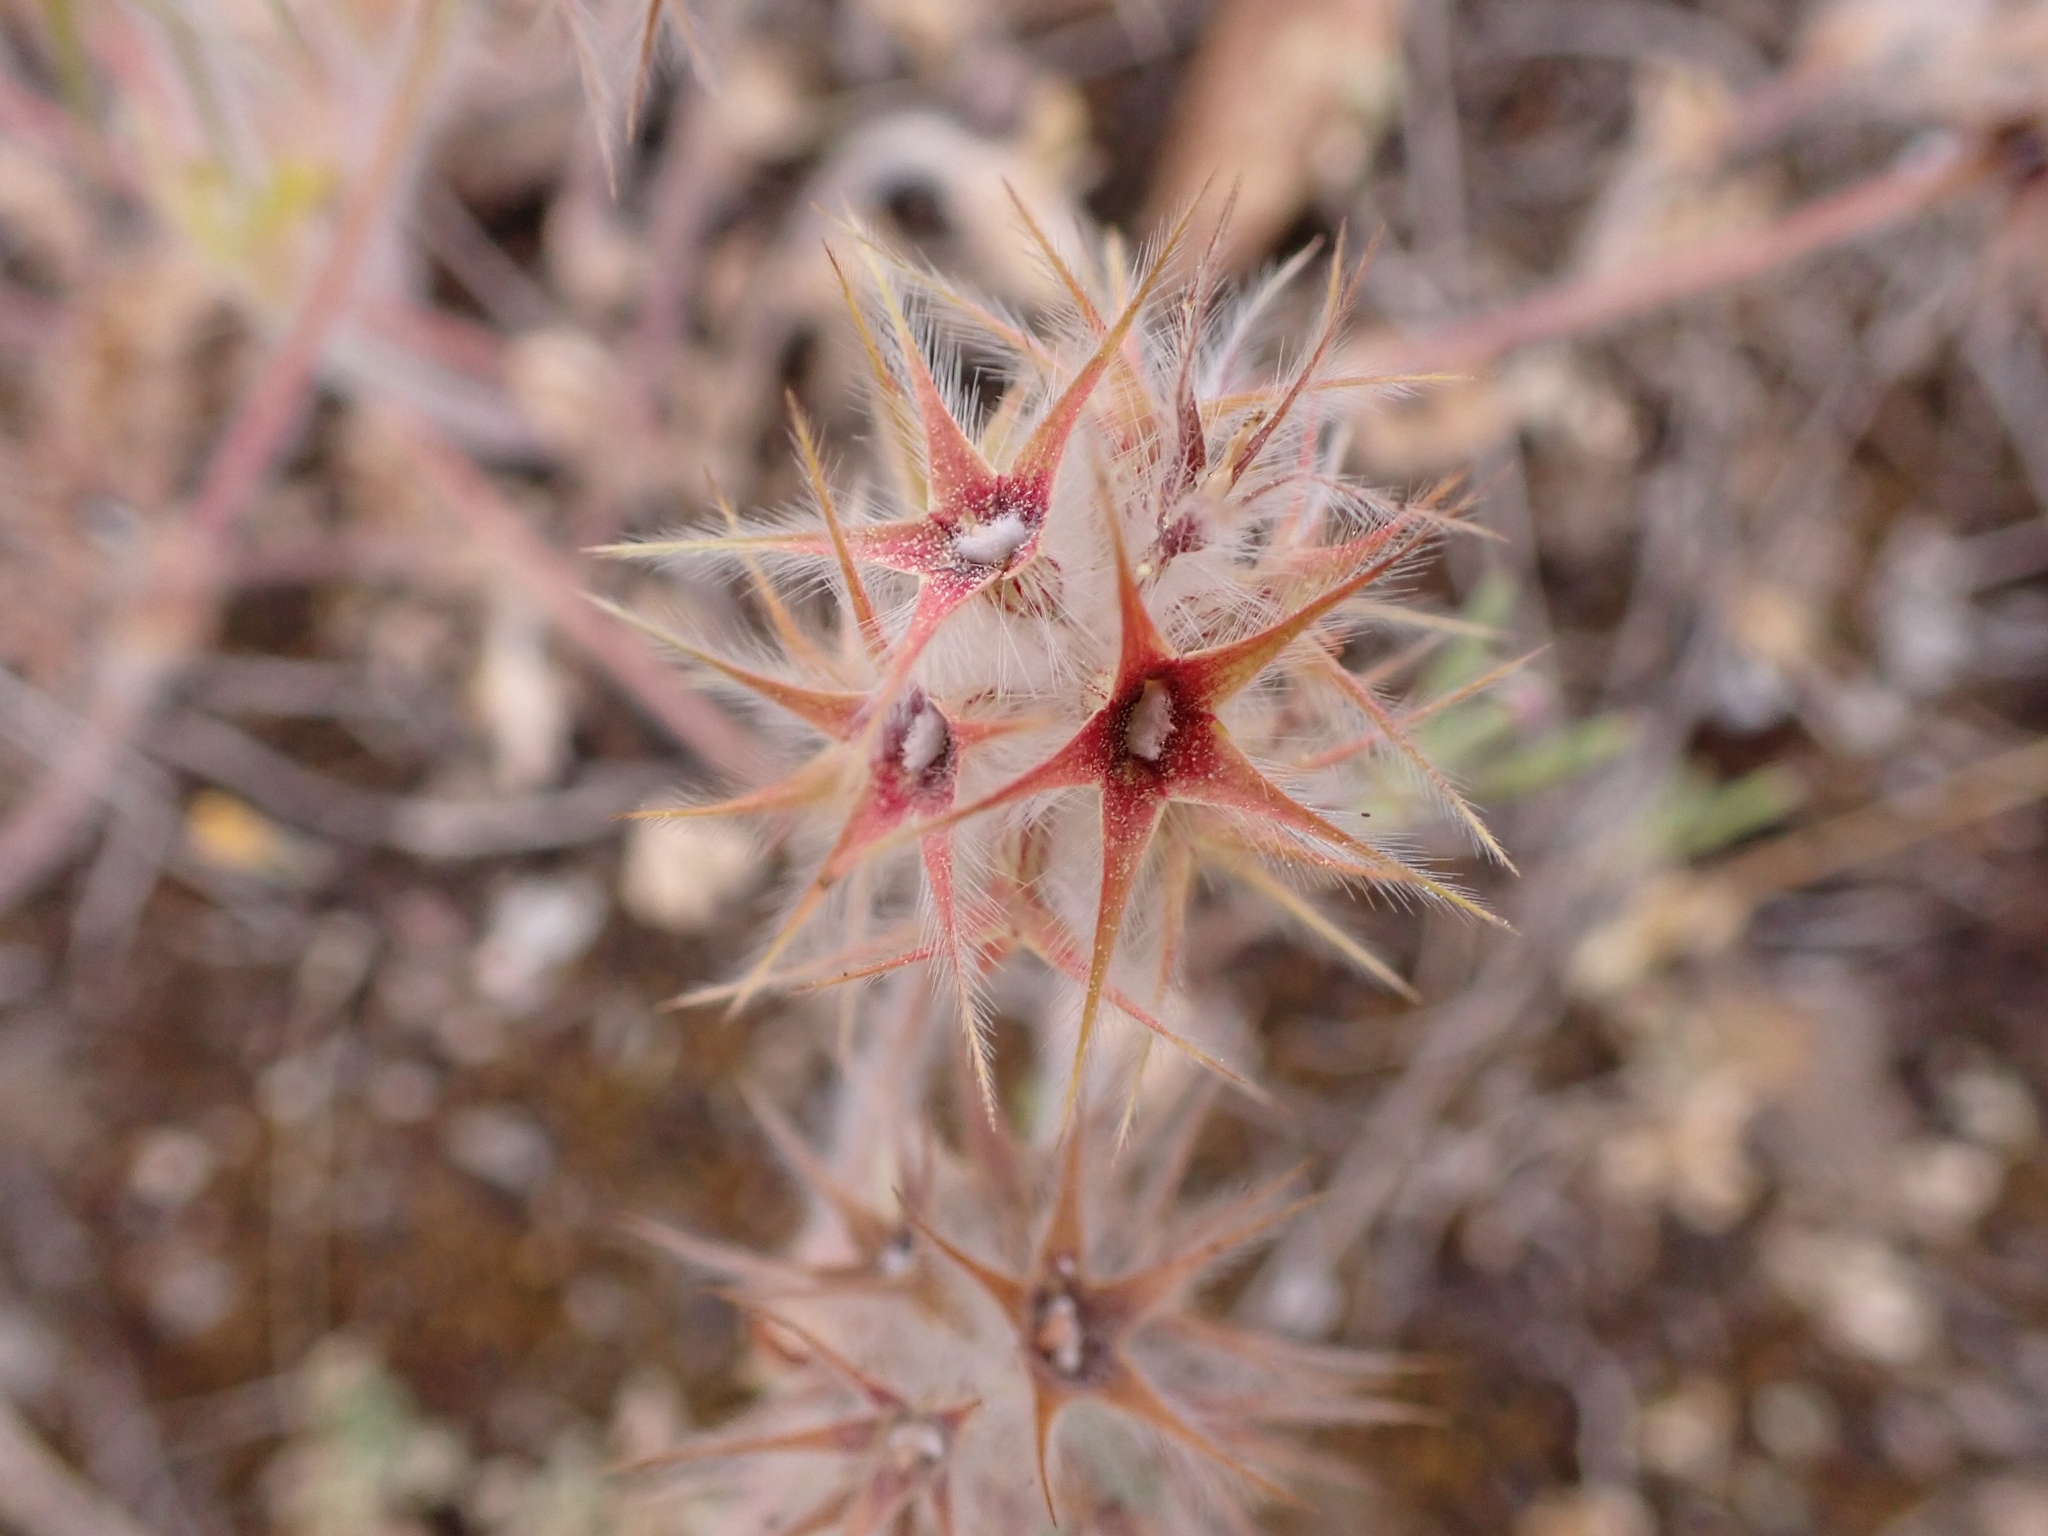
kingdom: Plantae
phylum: Tracheophyta
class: Magnoliopsida
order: Fabales
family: Fabaceae
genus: Trifolium
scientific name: Trifolium stellatum
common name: Starry clover
